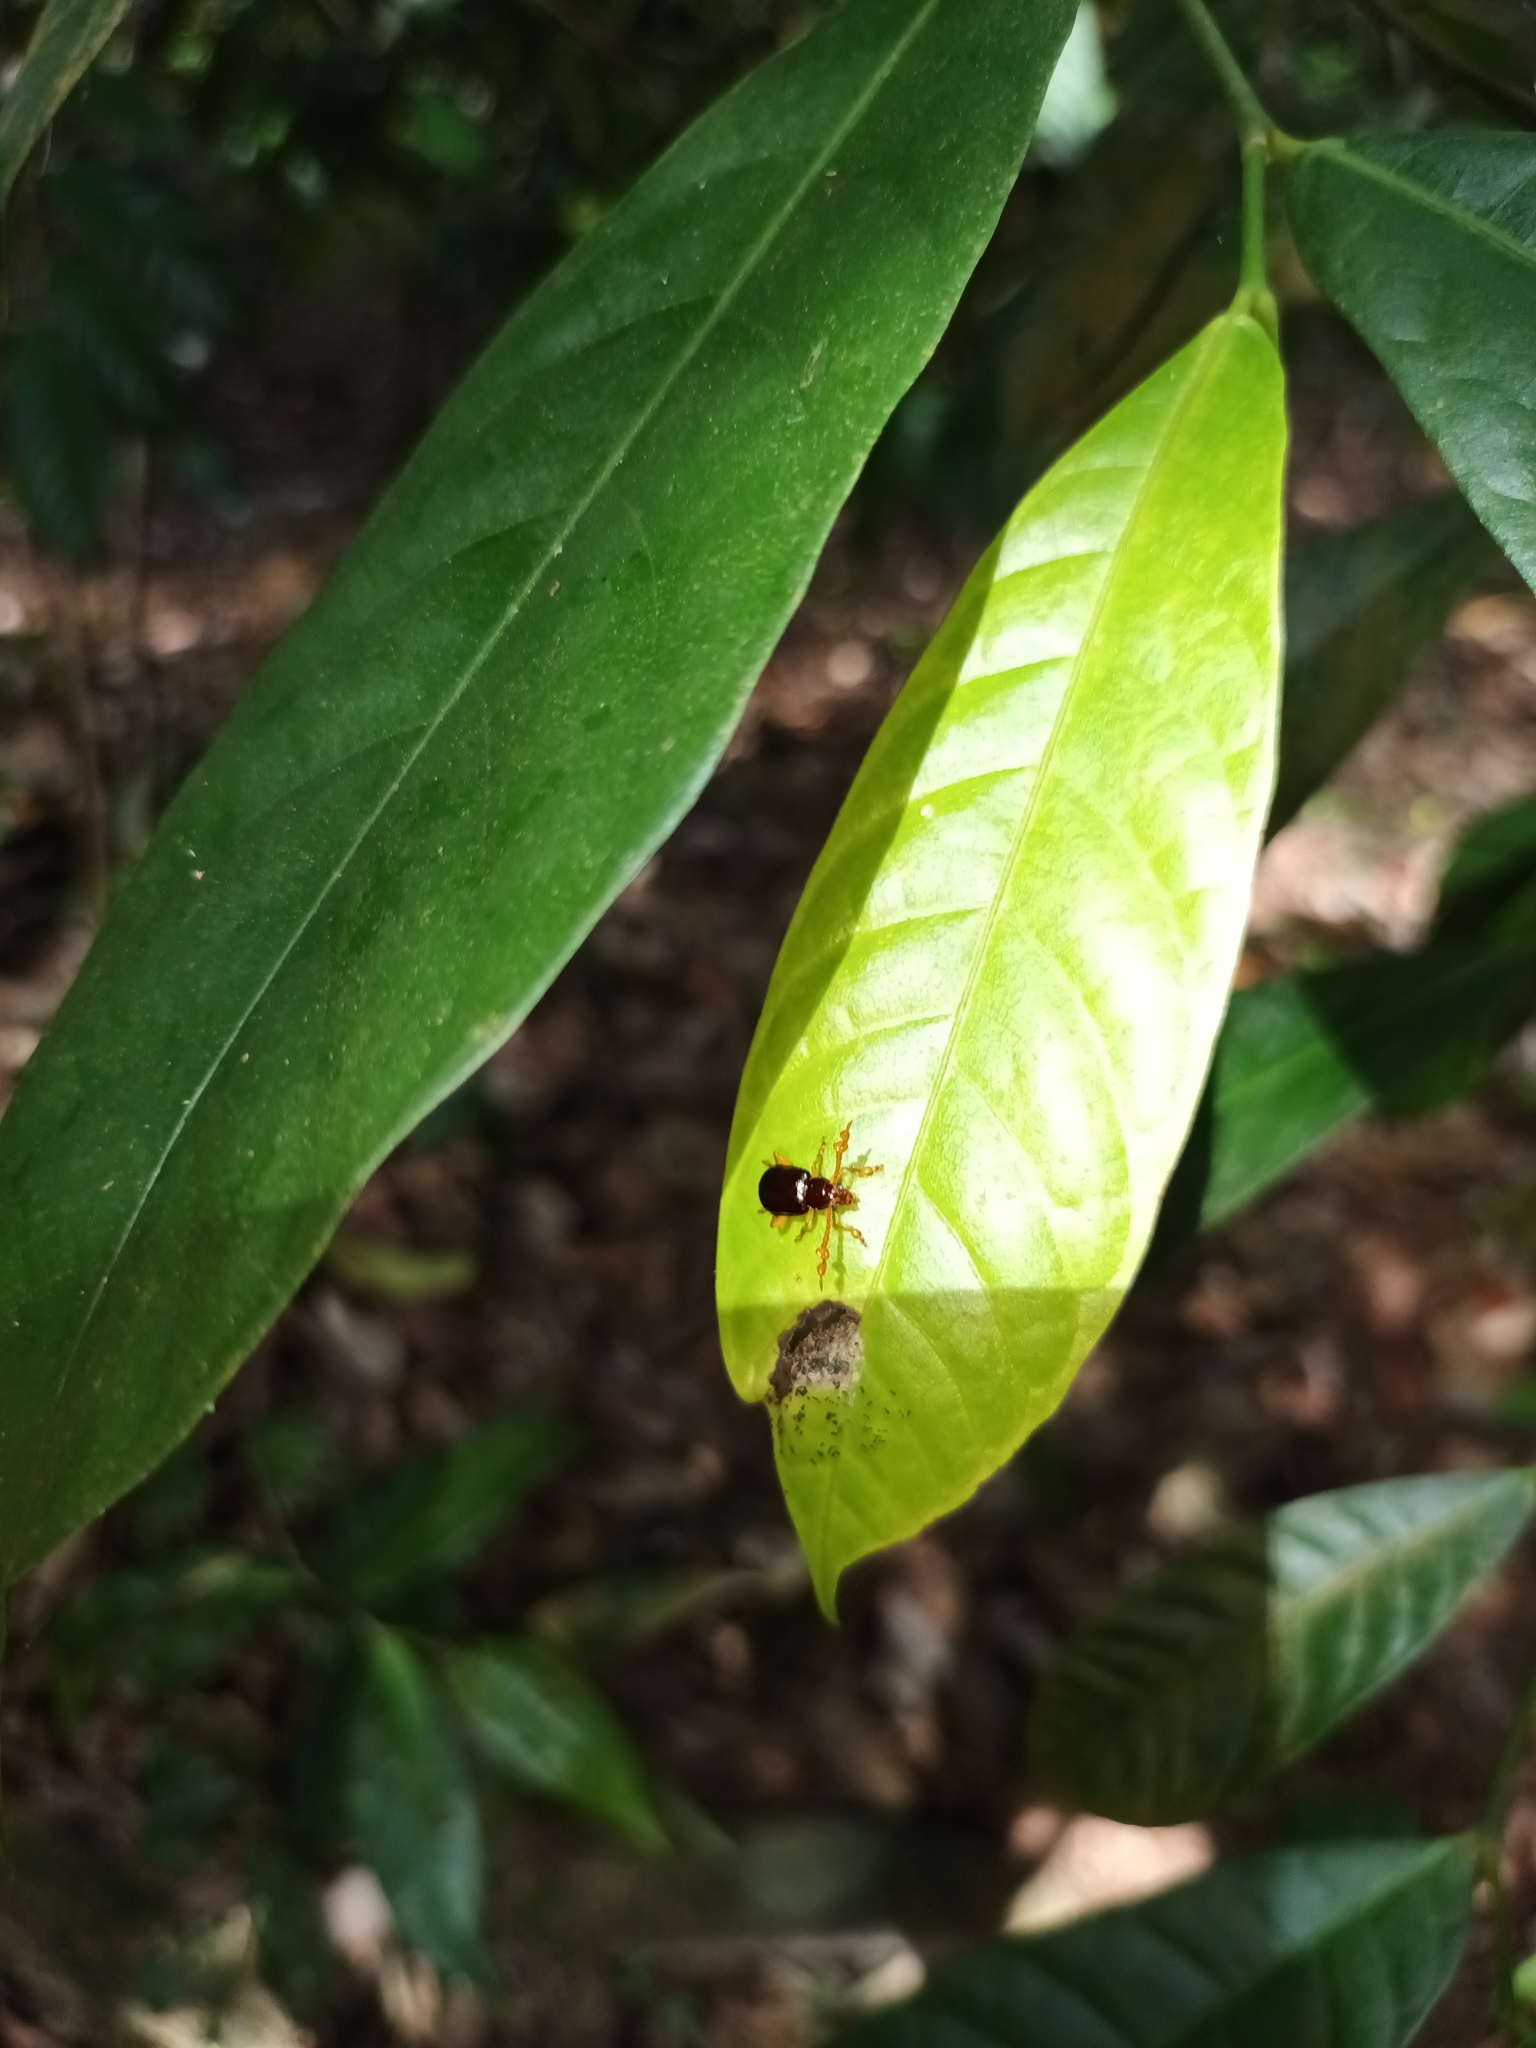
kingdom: Animalia
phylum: Arthropoda
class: Insecta
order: Coleoptera
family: Chrysomelidae
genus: Taumacera
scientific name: Taumacera insignis
